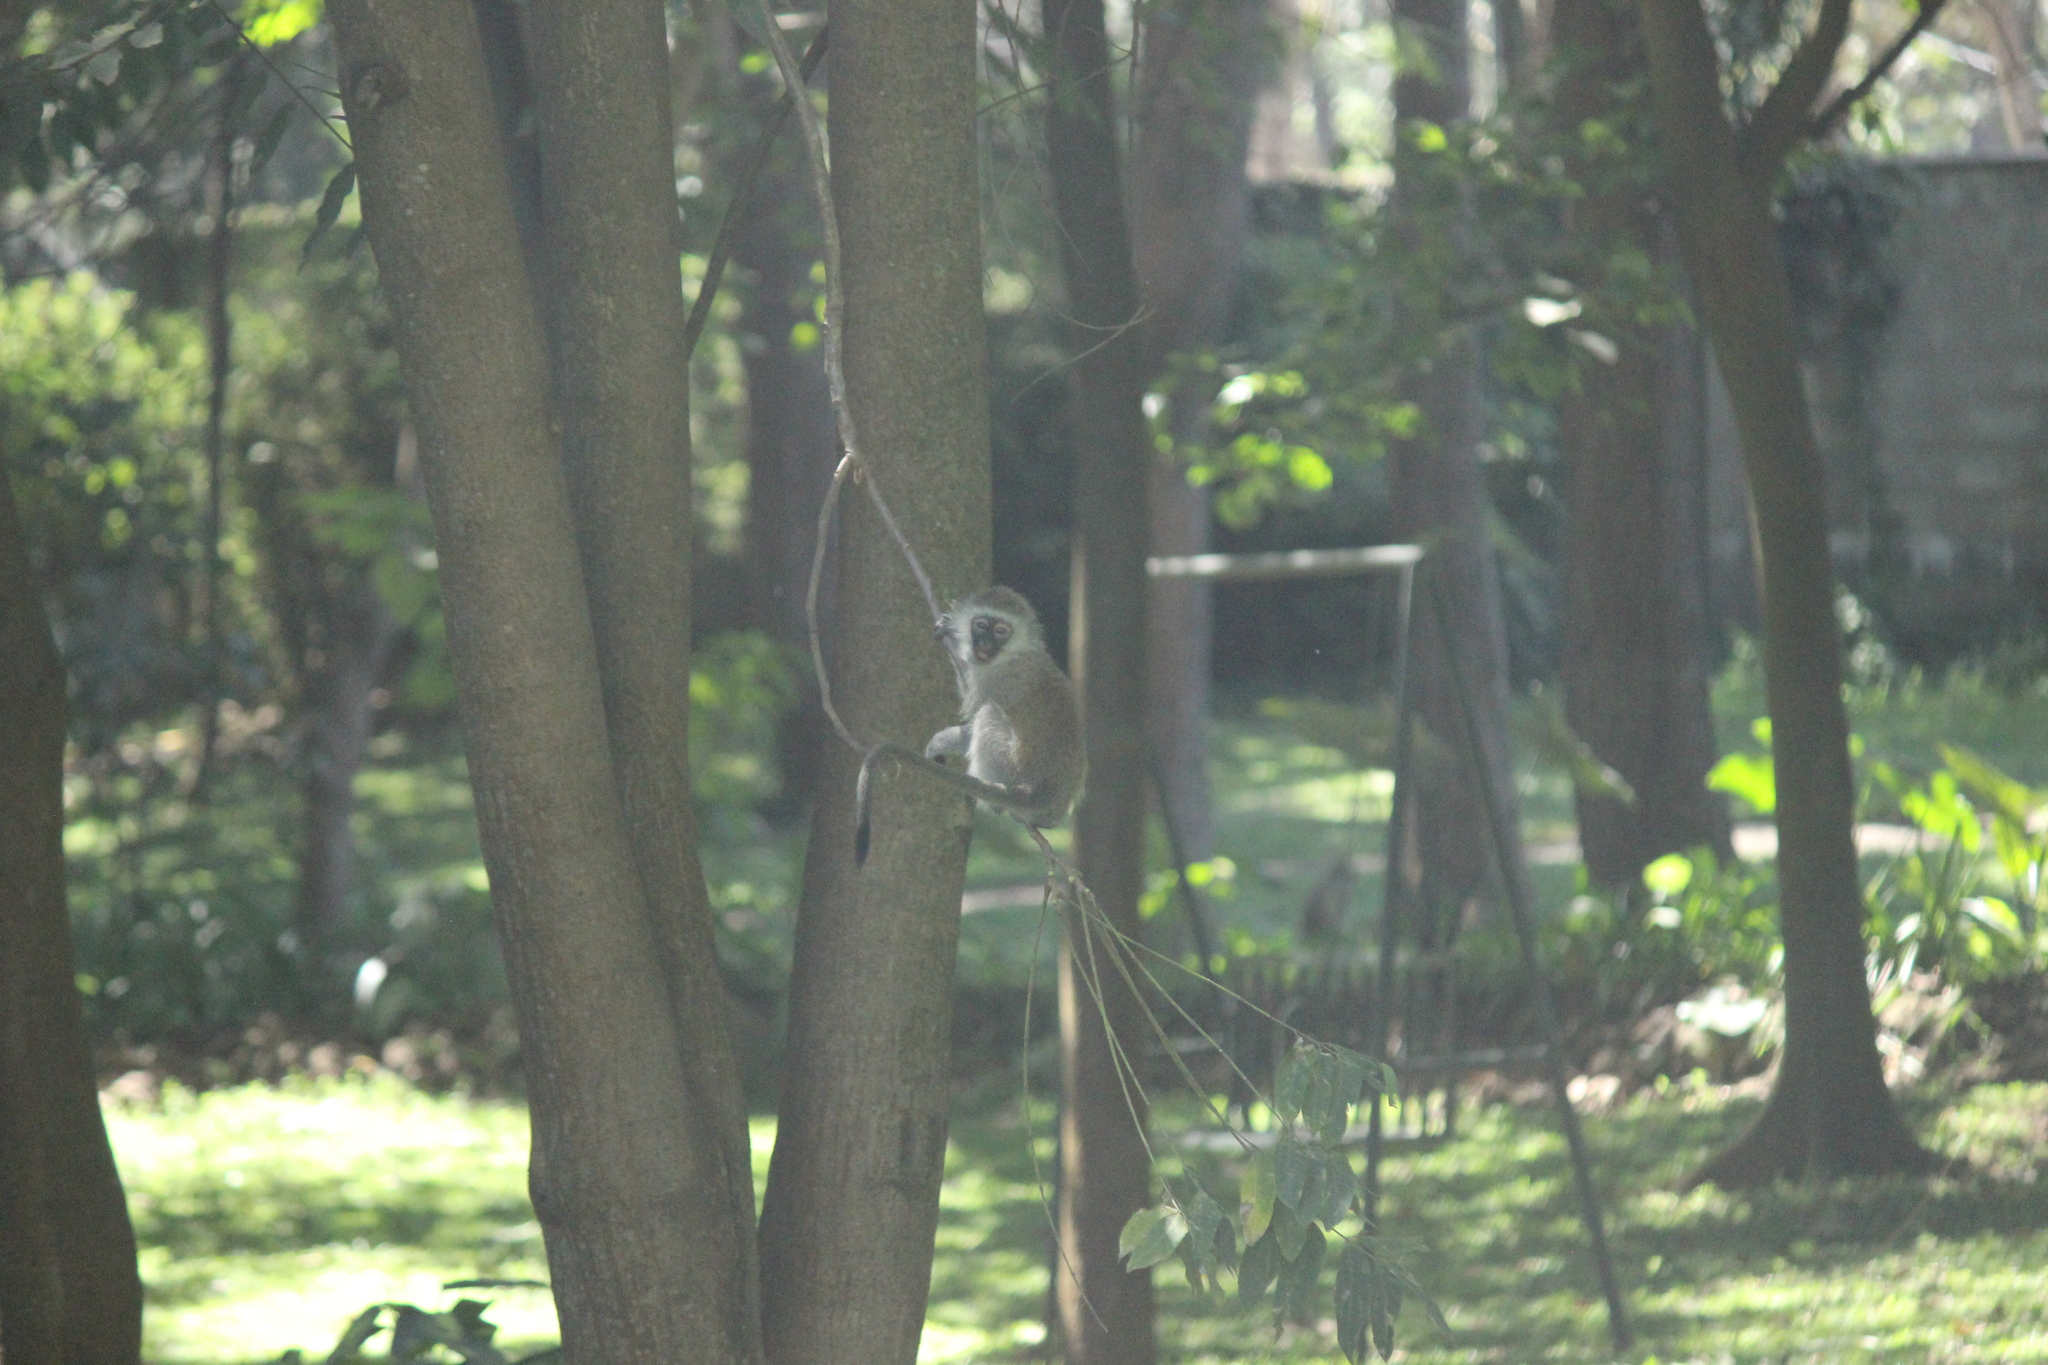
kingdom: Animalia
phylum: Chordata
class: Mammalia
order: Primates
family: Cercopithecidae
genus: Chlorocebus
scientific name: Chlorocebus pygerythrus
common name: Vervet monkey
